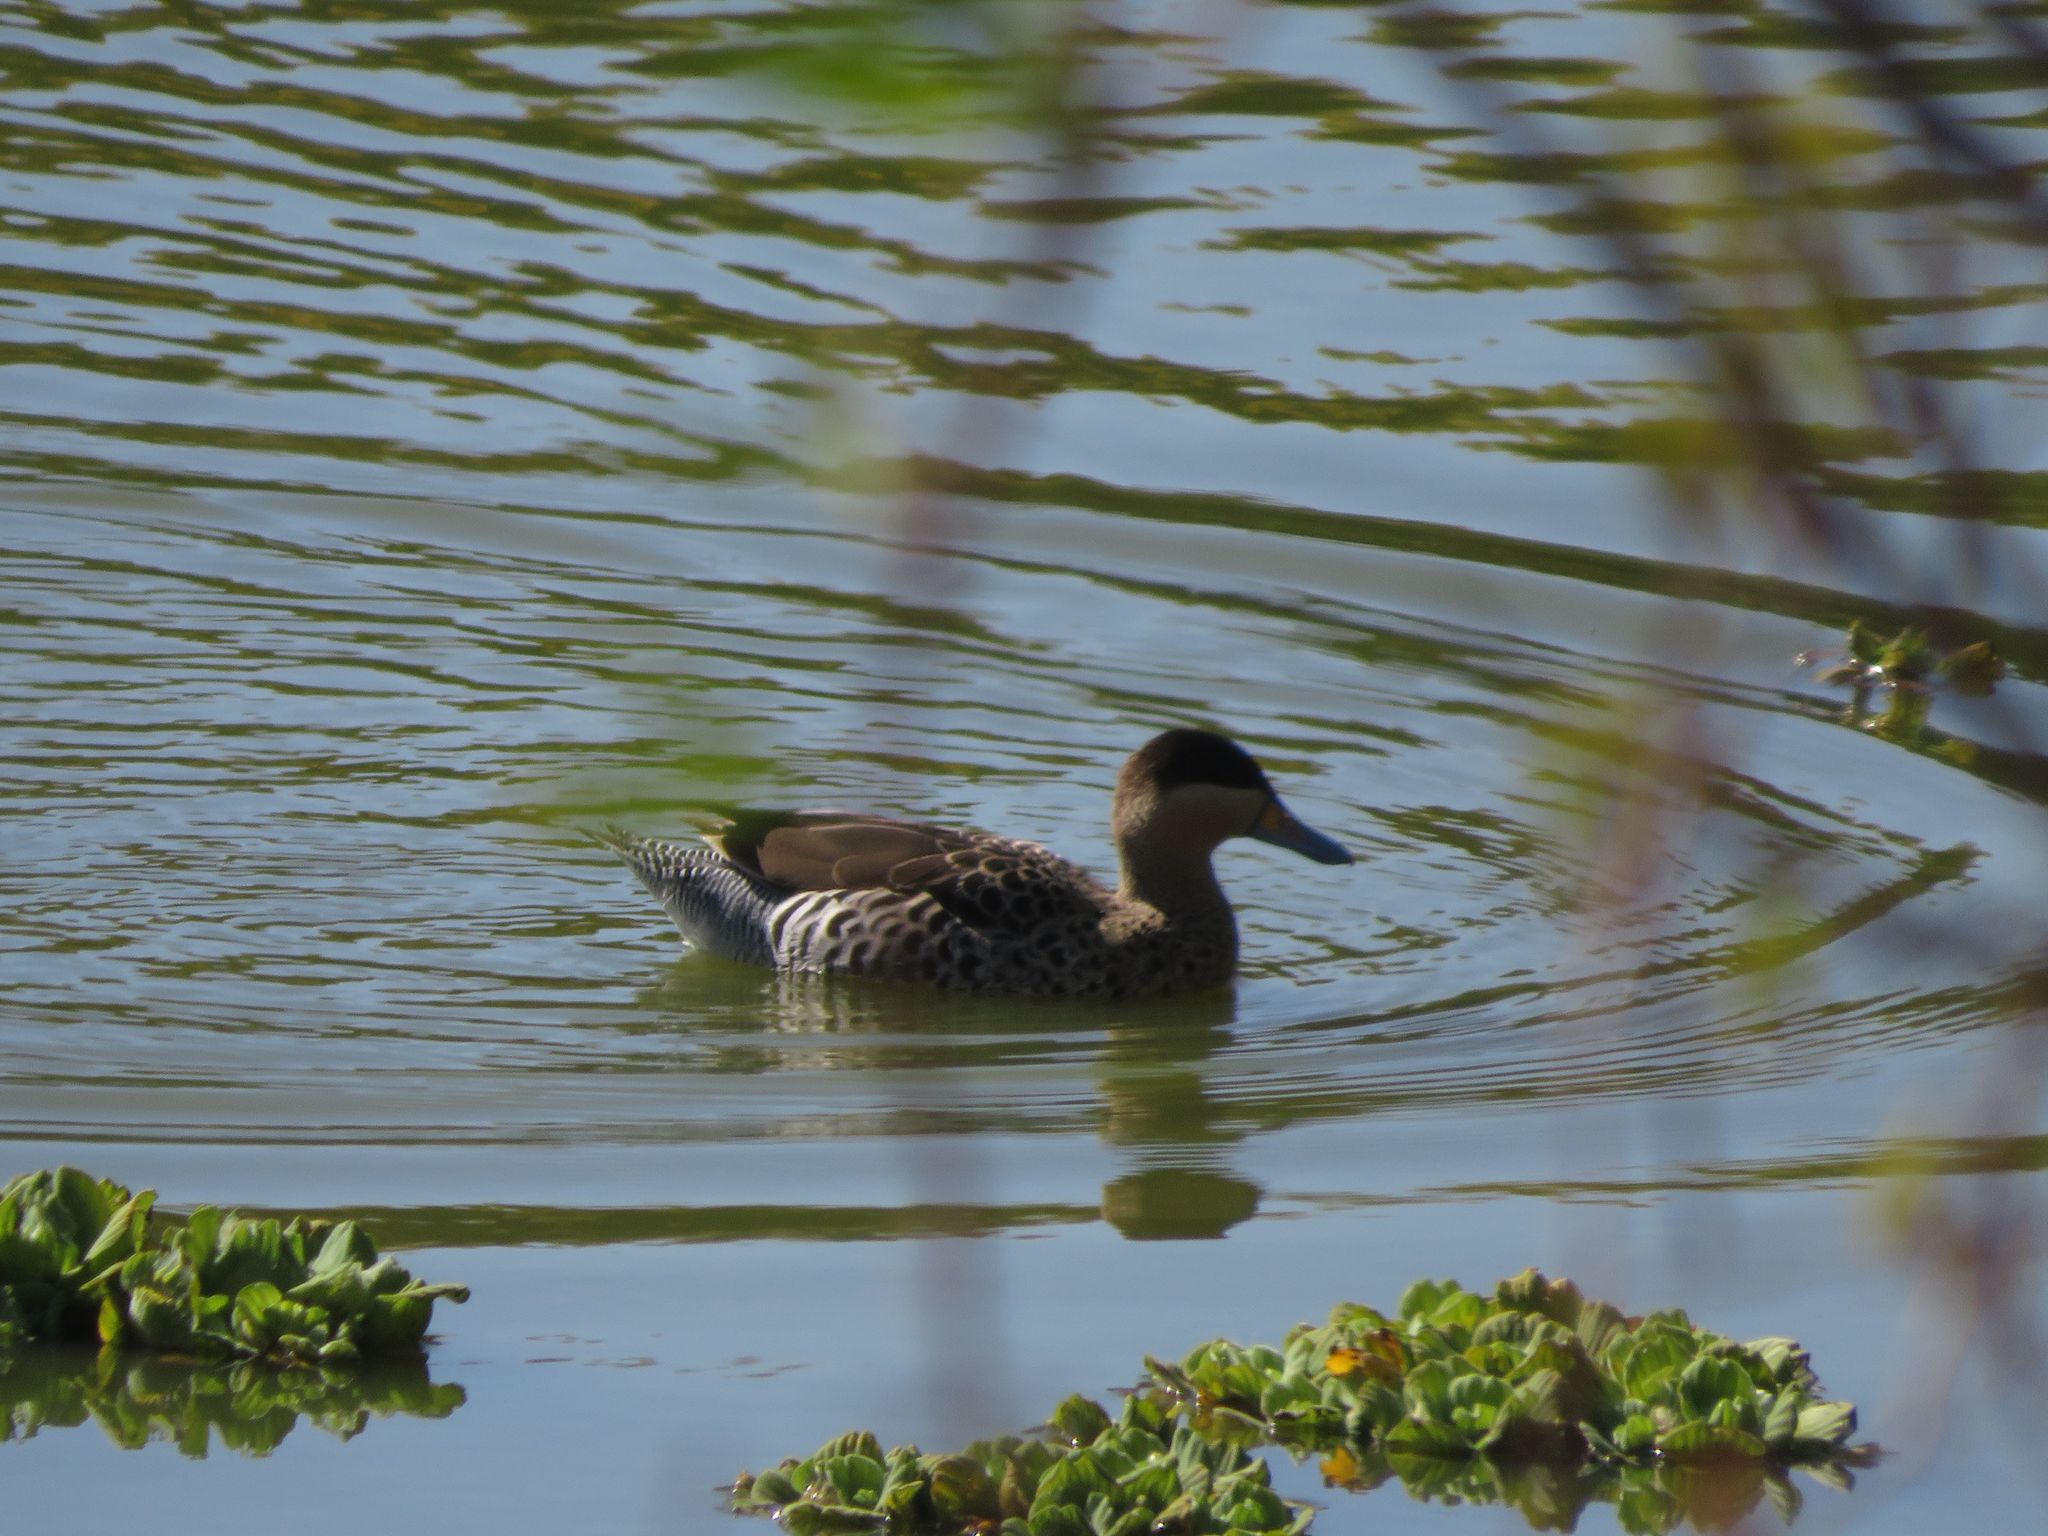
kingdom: Animalia
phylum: Chordata
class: Aves
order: Anseriformes
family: Anatidae
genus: Spatula
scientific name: Spatula versicolor
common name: Silver teal
